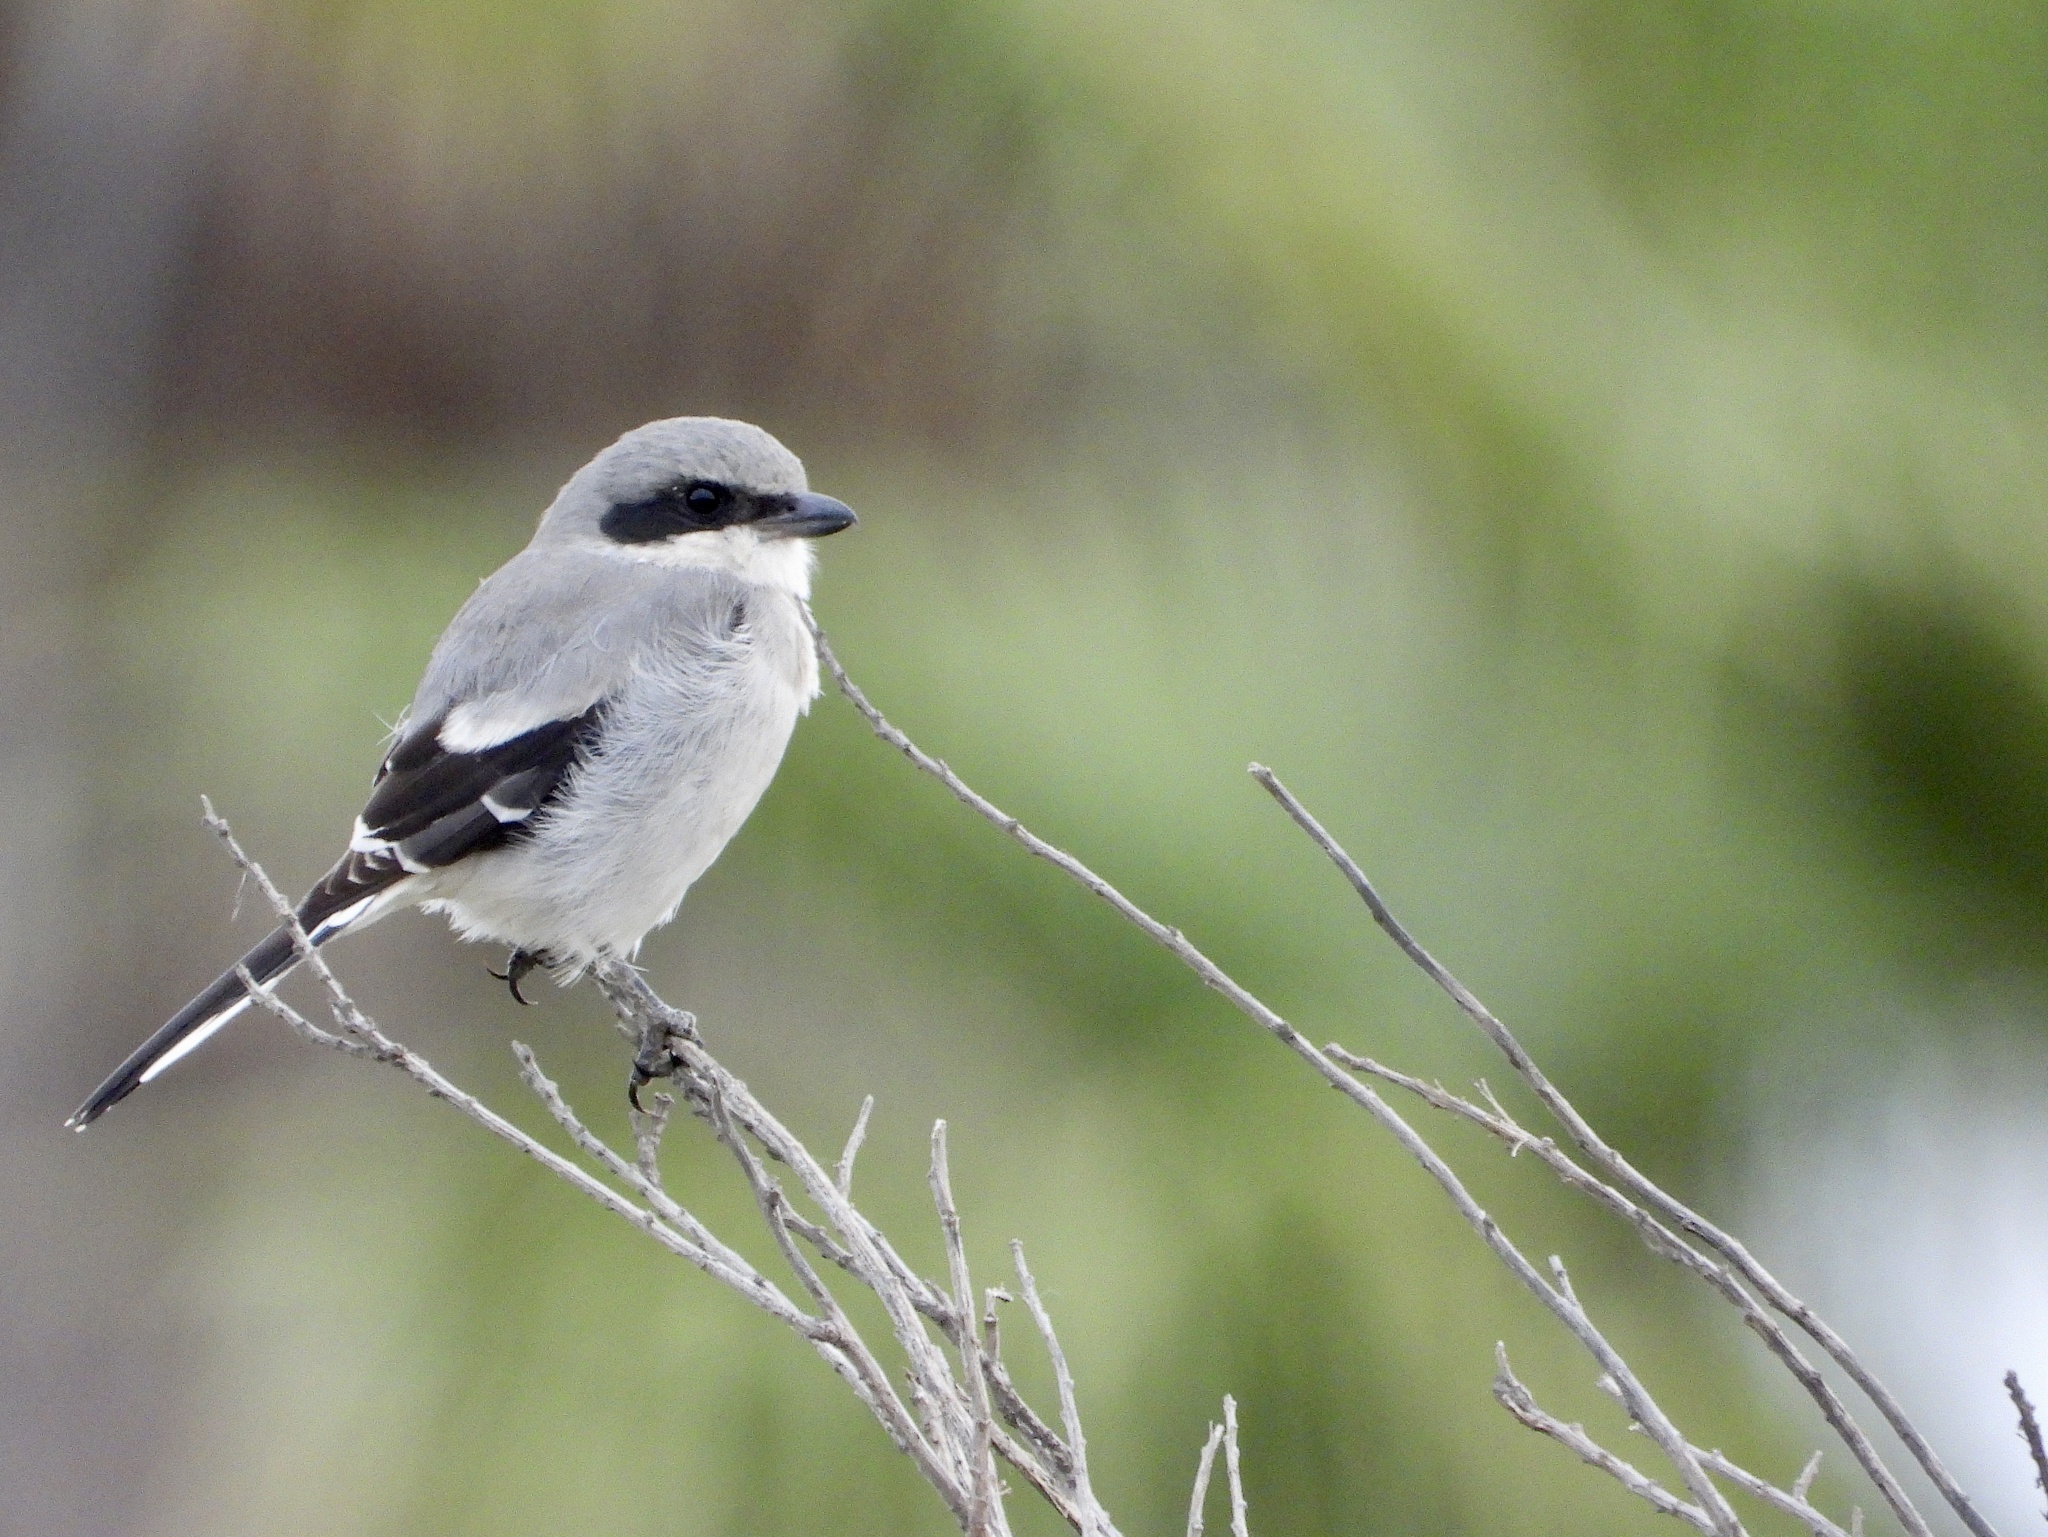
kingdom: Animalia
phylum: Chordata
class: Aves
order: Passeriformes
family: Laniidae
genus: Lanius
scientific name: Lanius ludovicianus
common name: Loggerhead shrike
